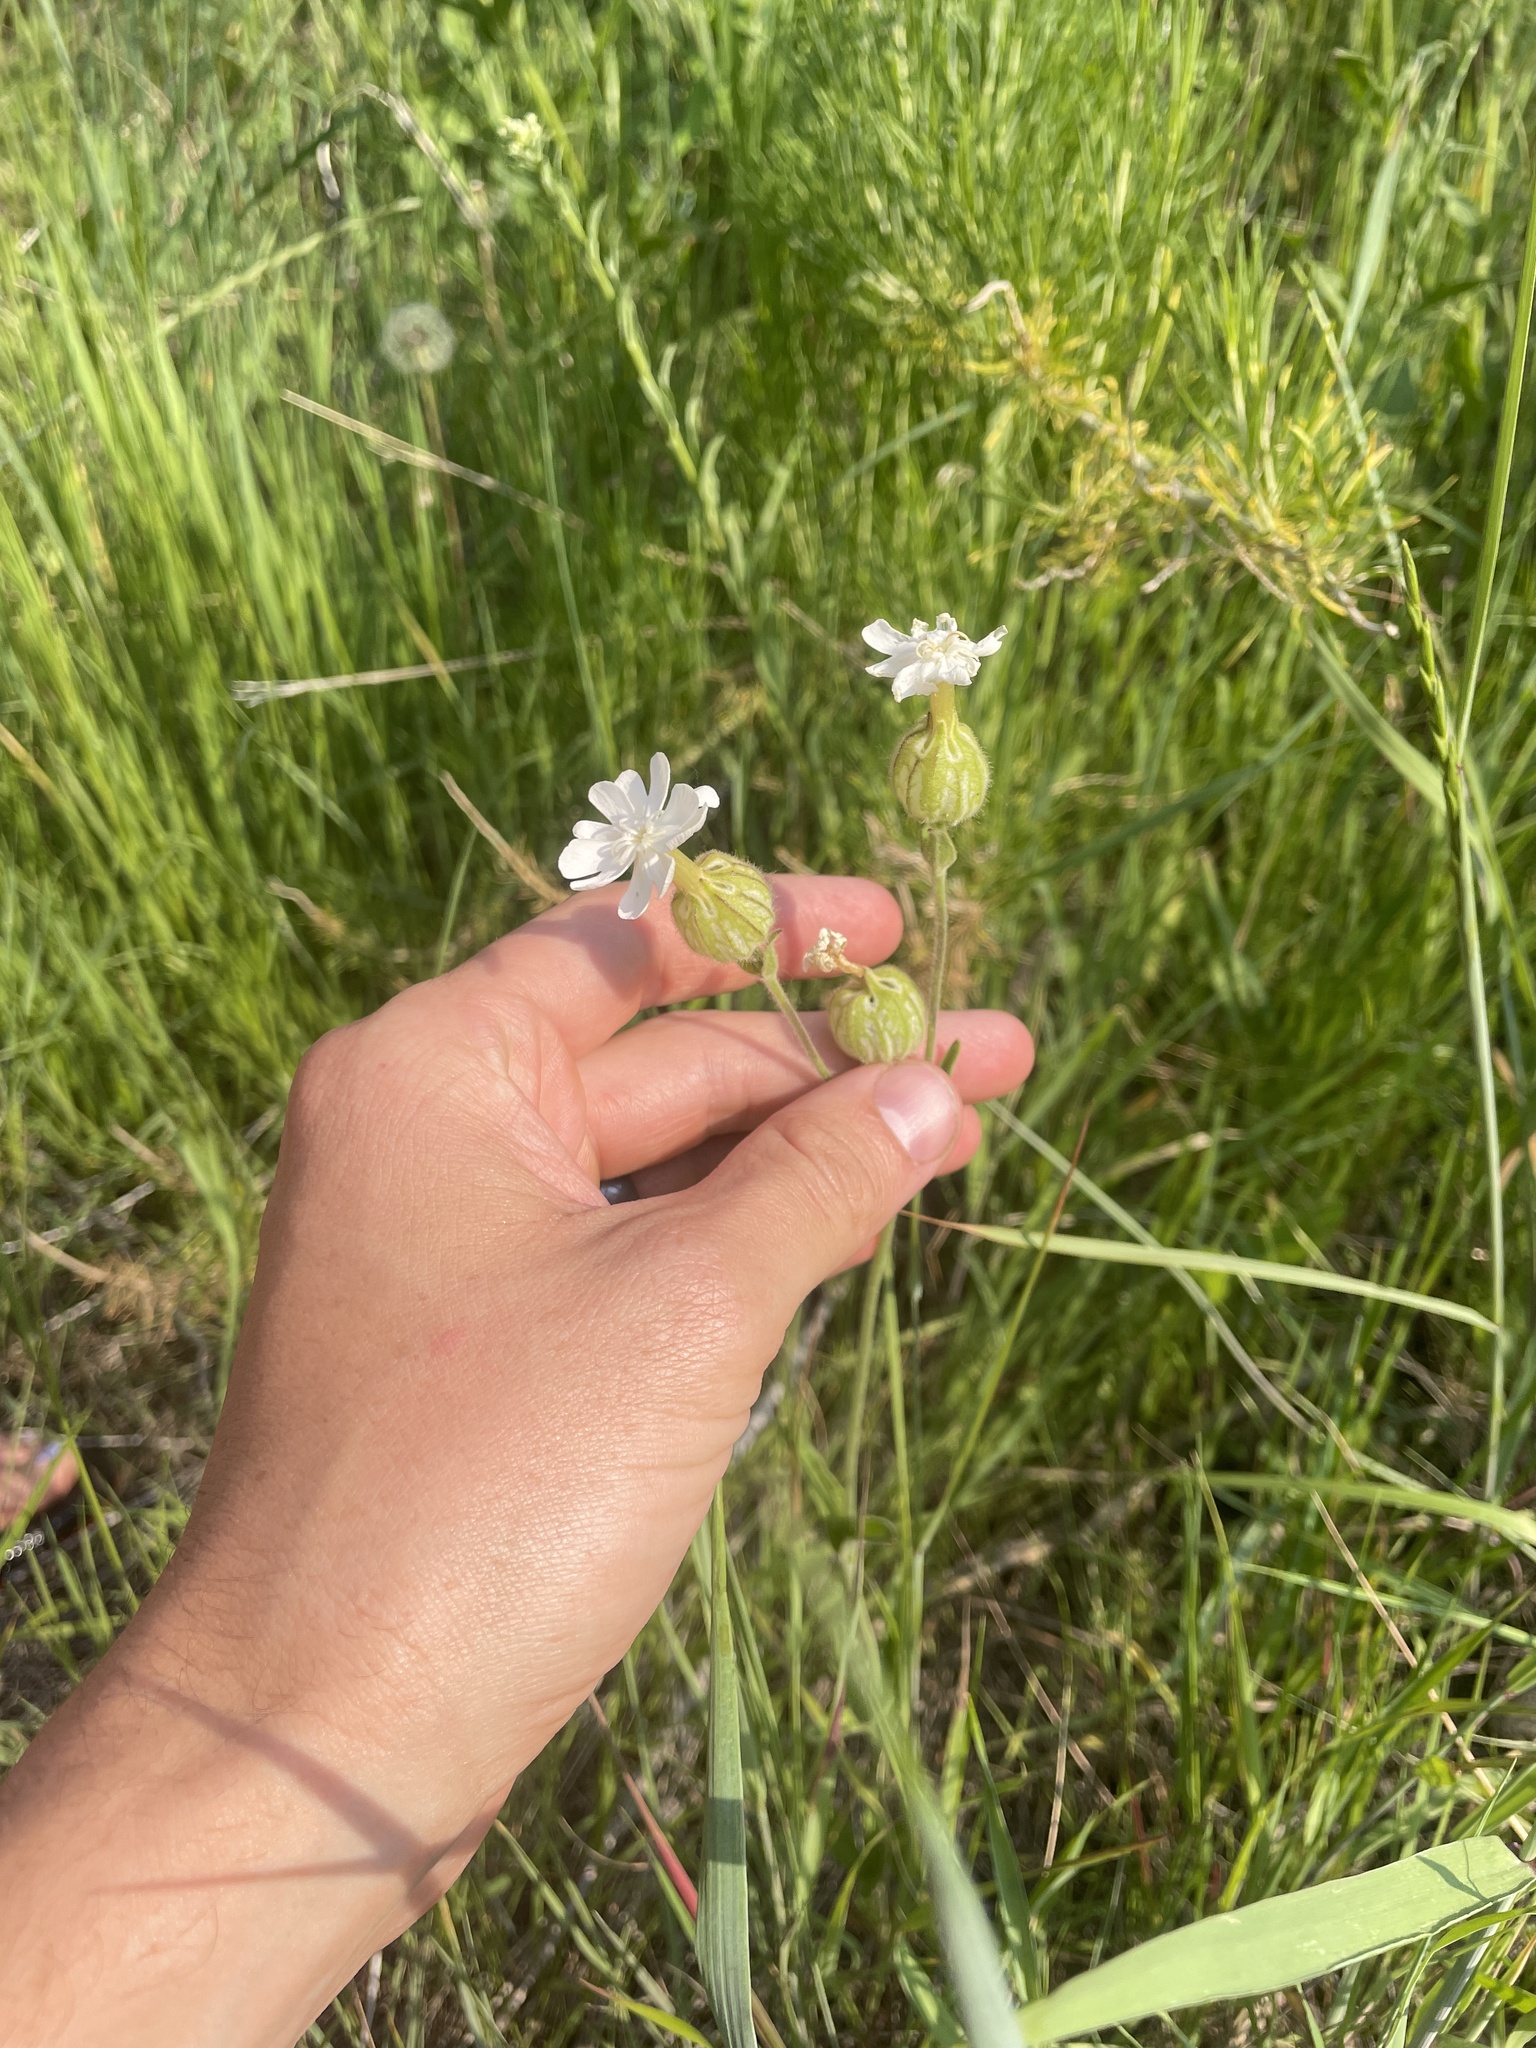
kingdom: Plantae
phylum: Tracheophyta
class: Magnoliopsida
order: Caryophyllales
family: Caryophyllaceae
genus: Silene
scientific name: Silene latifolia
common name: White campion
